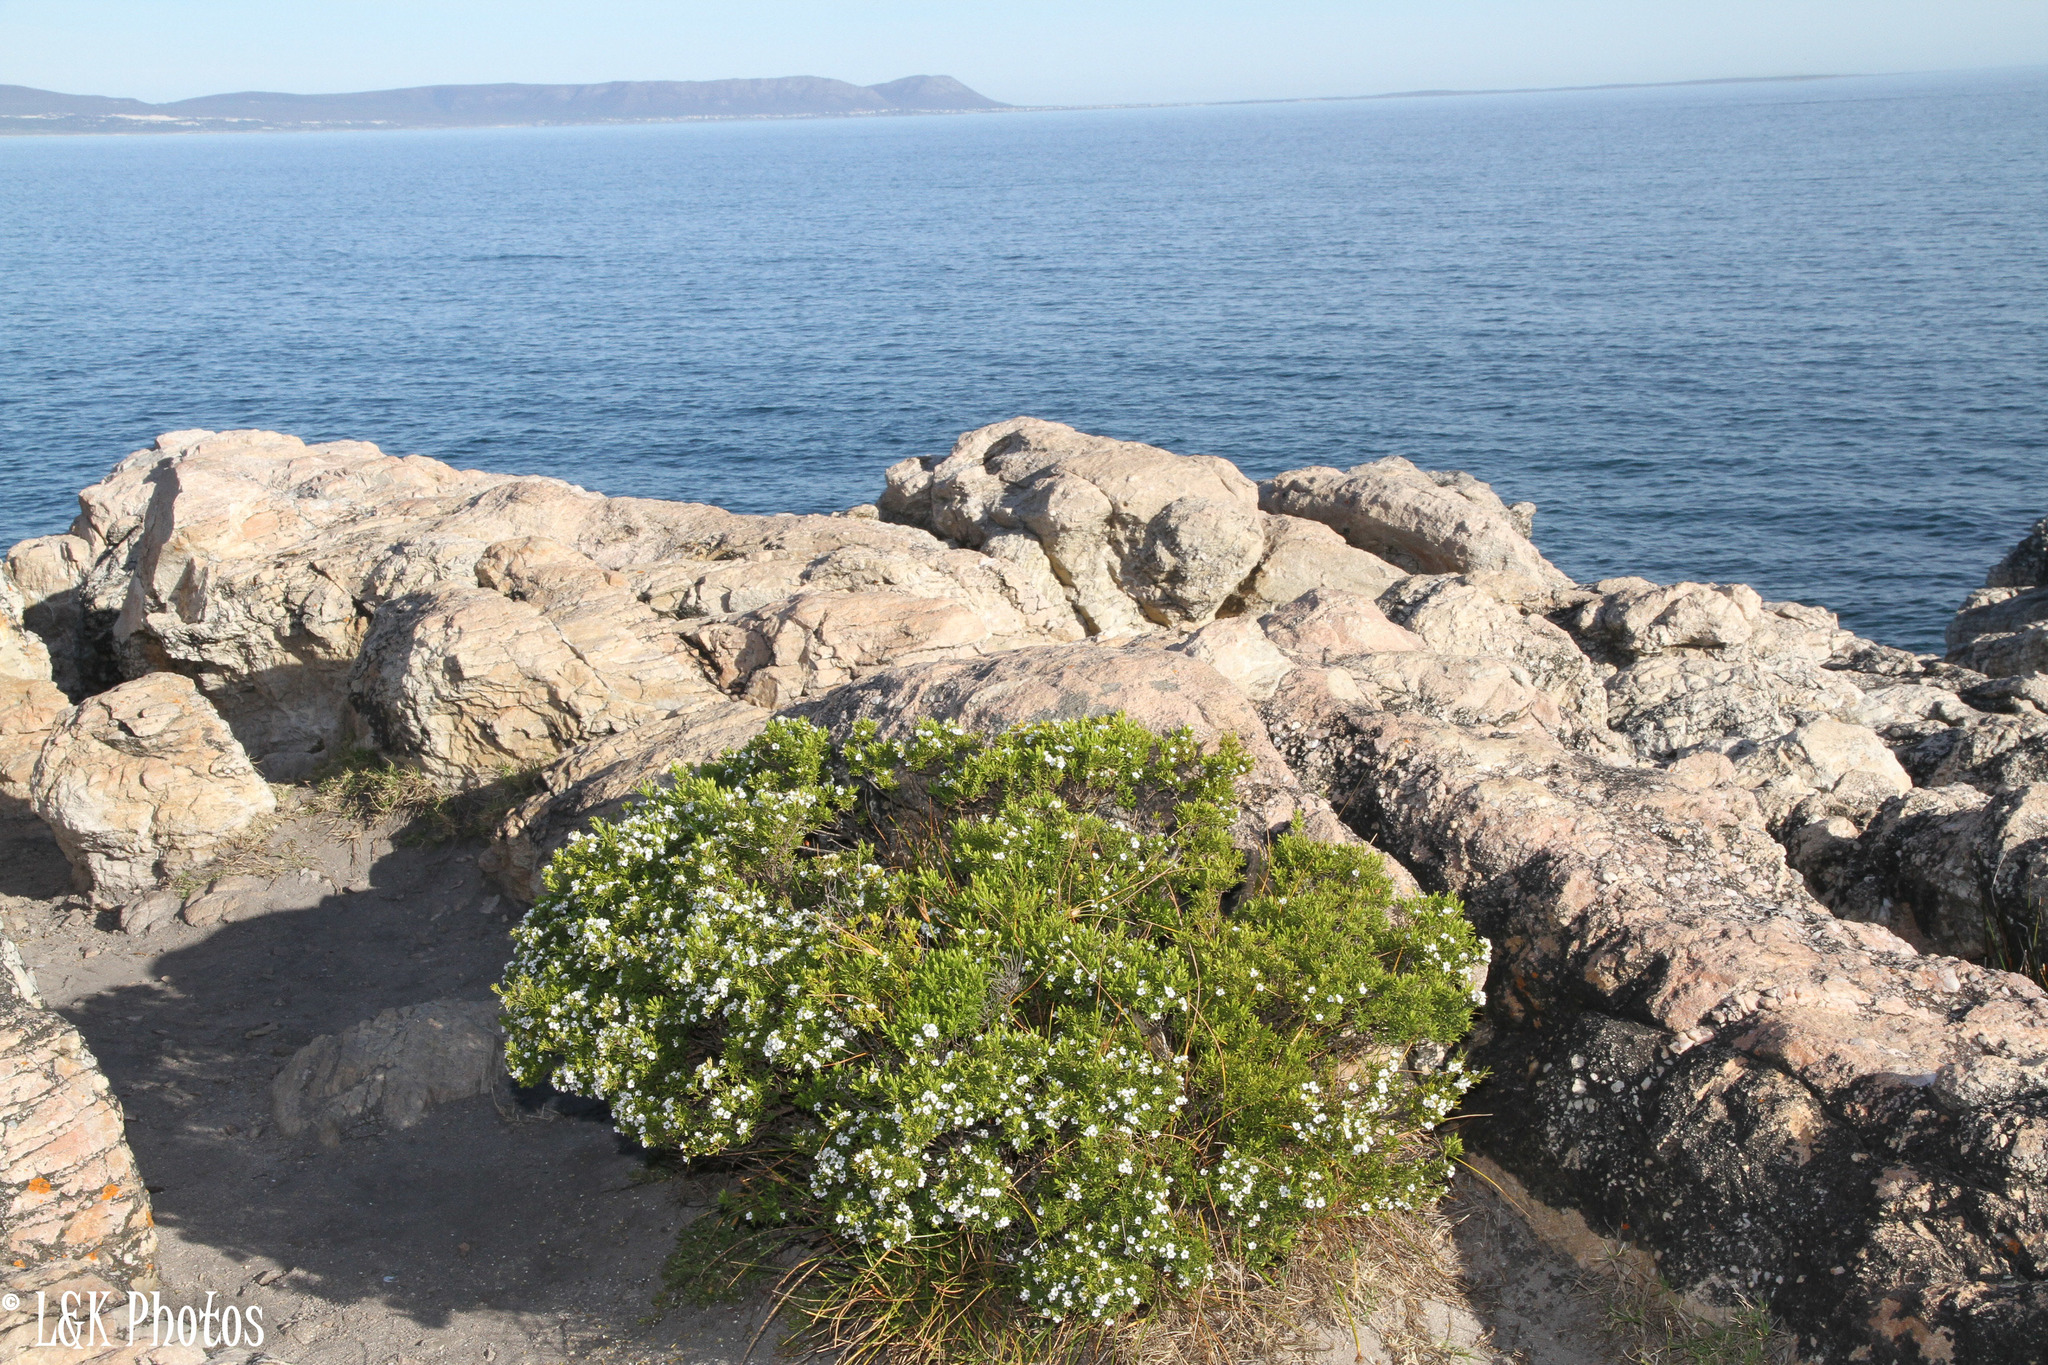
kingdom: Plantae
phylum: Tracheophyta
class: Magnoliopsida
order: Sapindales
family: Rutaceae
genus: Coleonema
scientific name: Coleonema album
